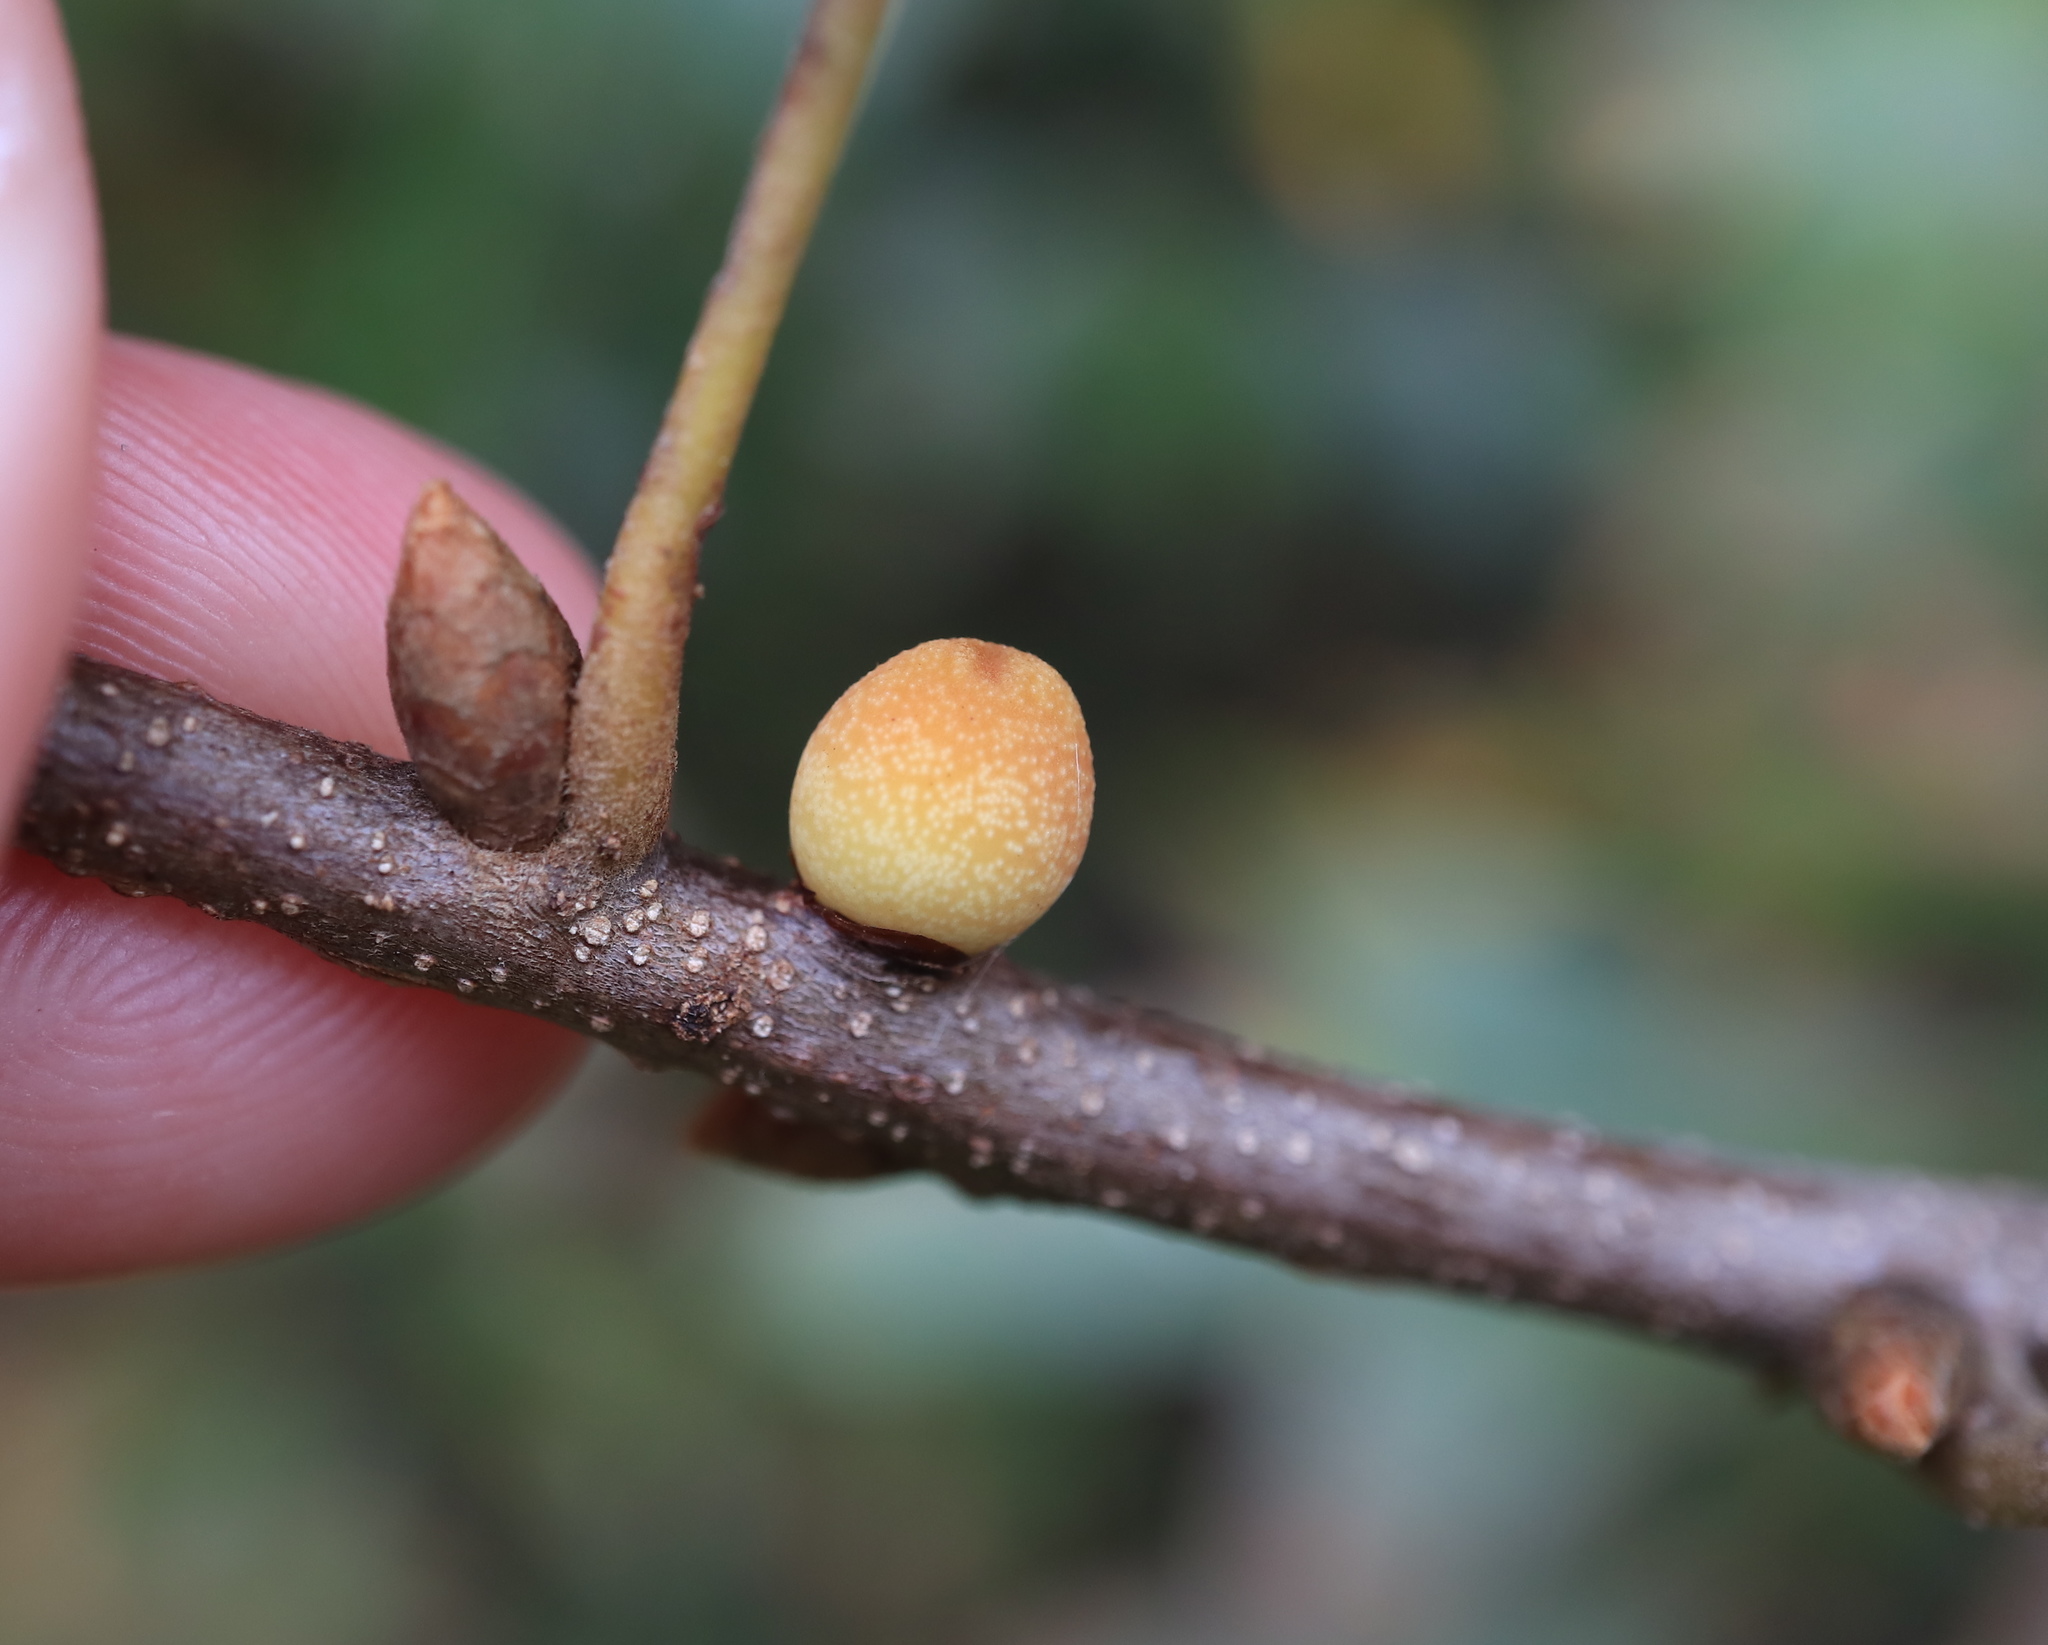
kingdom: Animalia
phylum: Arthropoda
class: Insecta
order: Hymenoptera
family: Cynipidae
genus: Kokkocynips
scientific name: Kokkocynips imbricariae
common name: Banded bullet gall wasp
